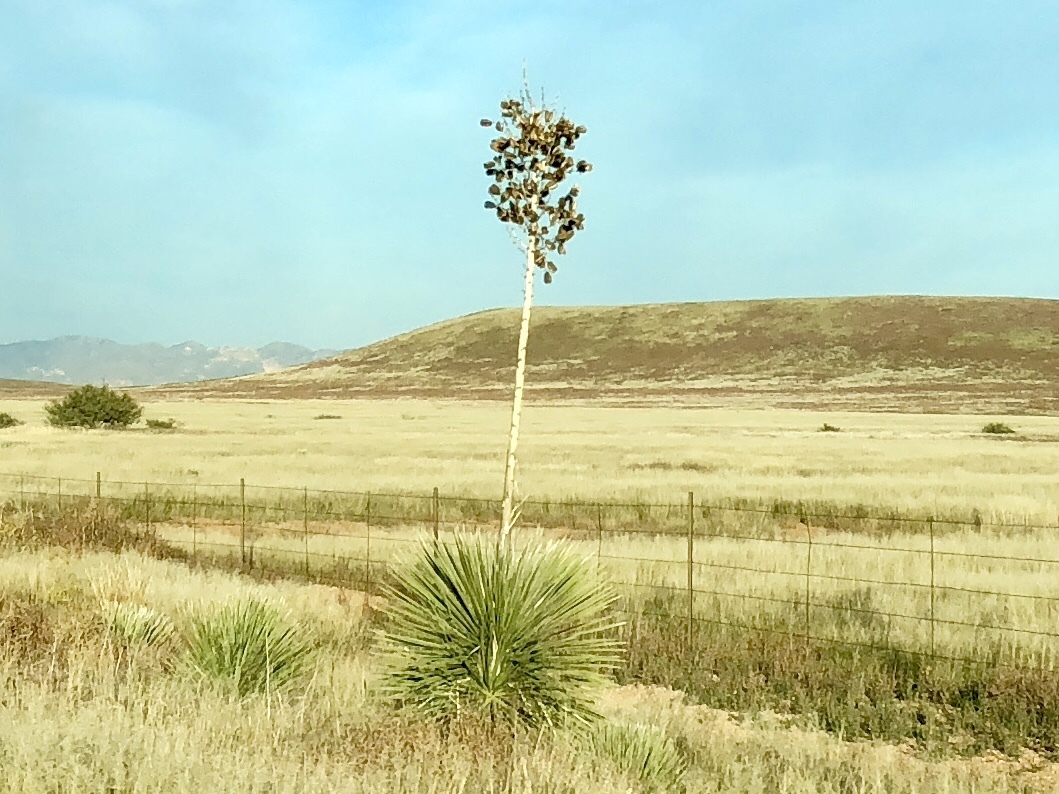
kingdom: Plantae
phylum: Tracheophyta
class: Liliopsida
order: Asparagales
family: Asparagaceae
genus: Yucca
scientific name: Yucca elata
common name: Palmella
